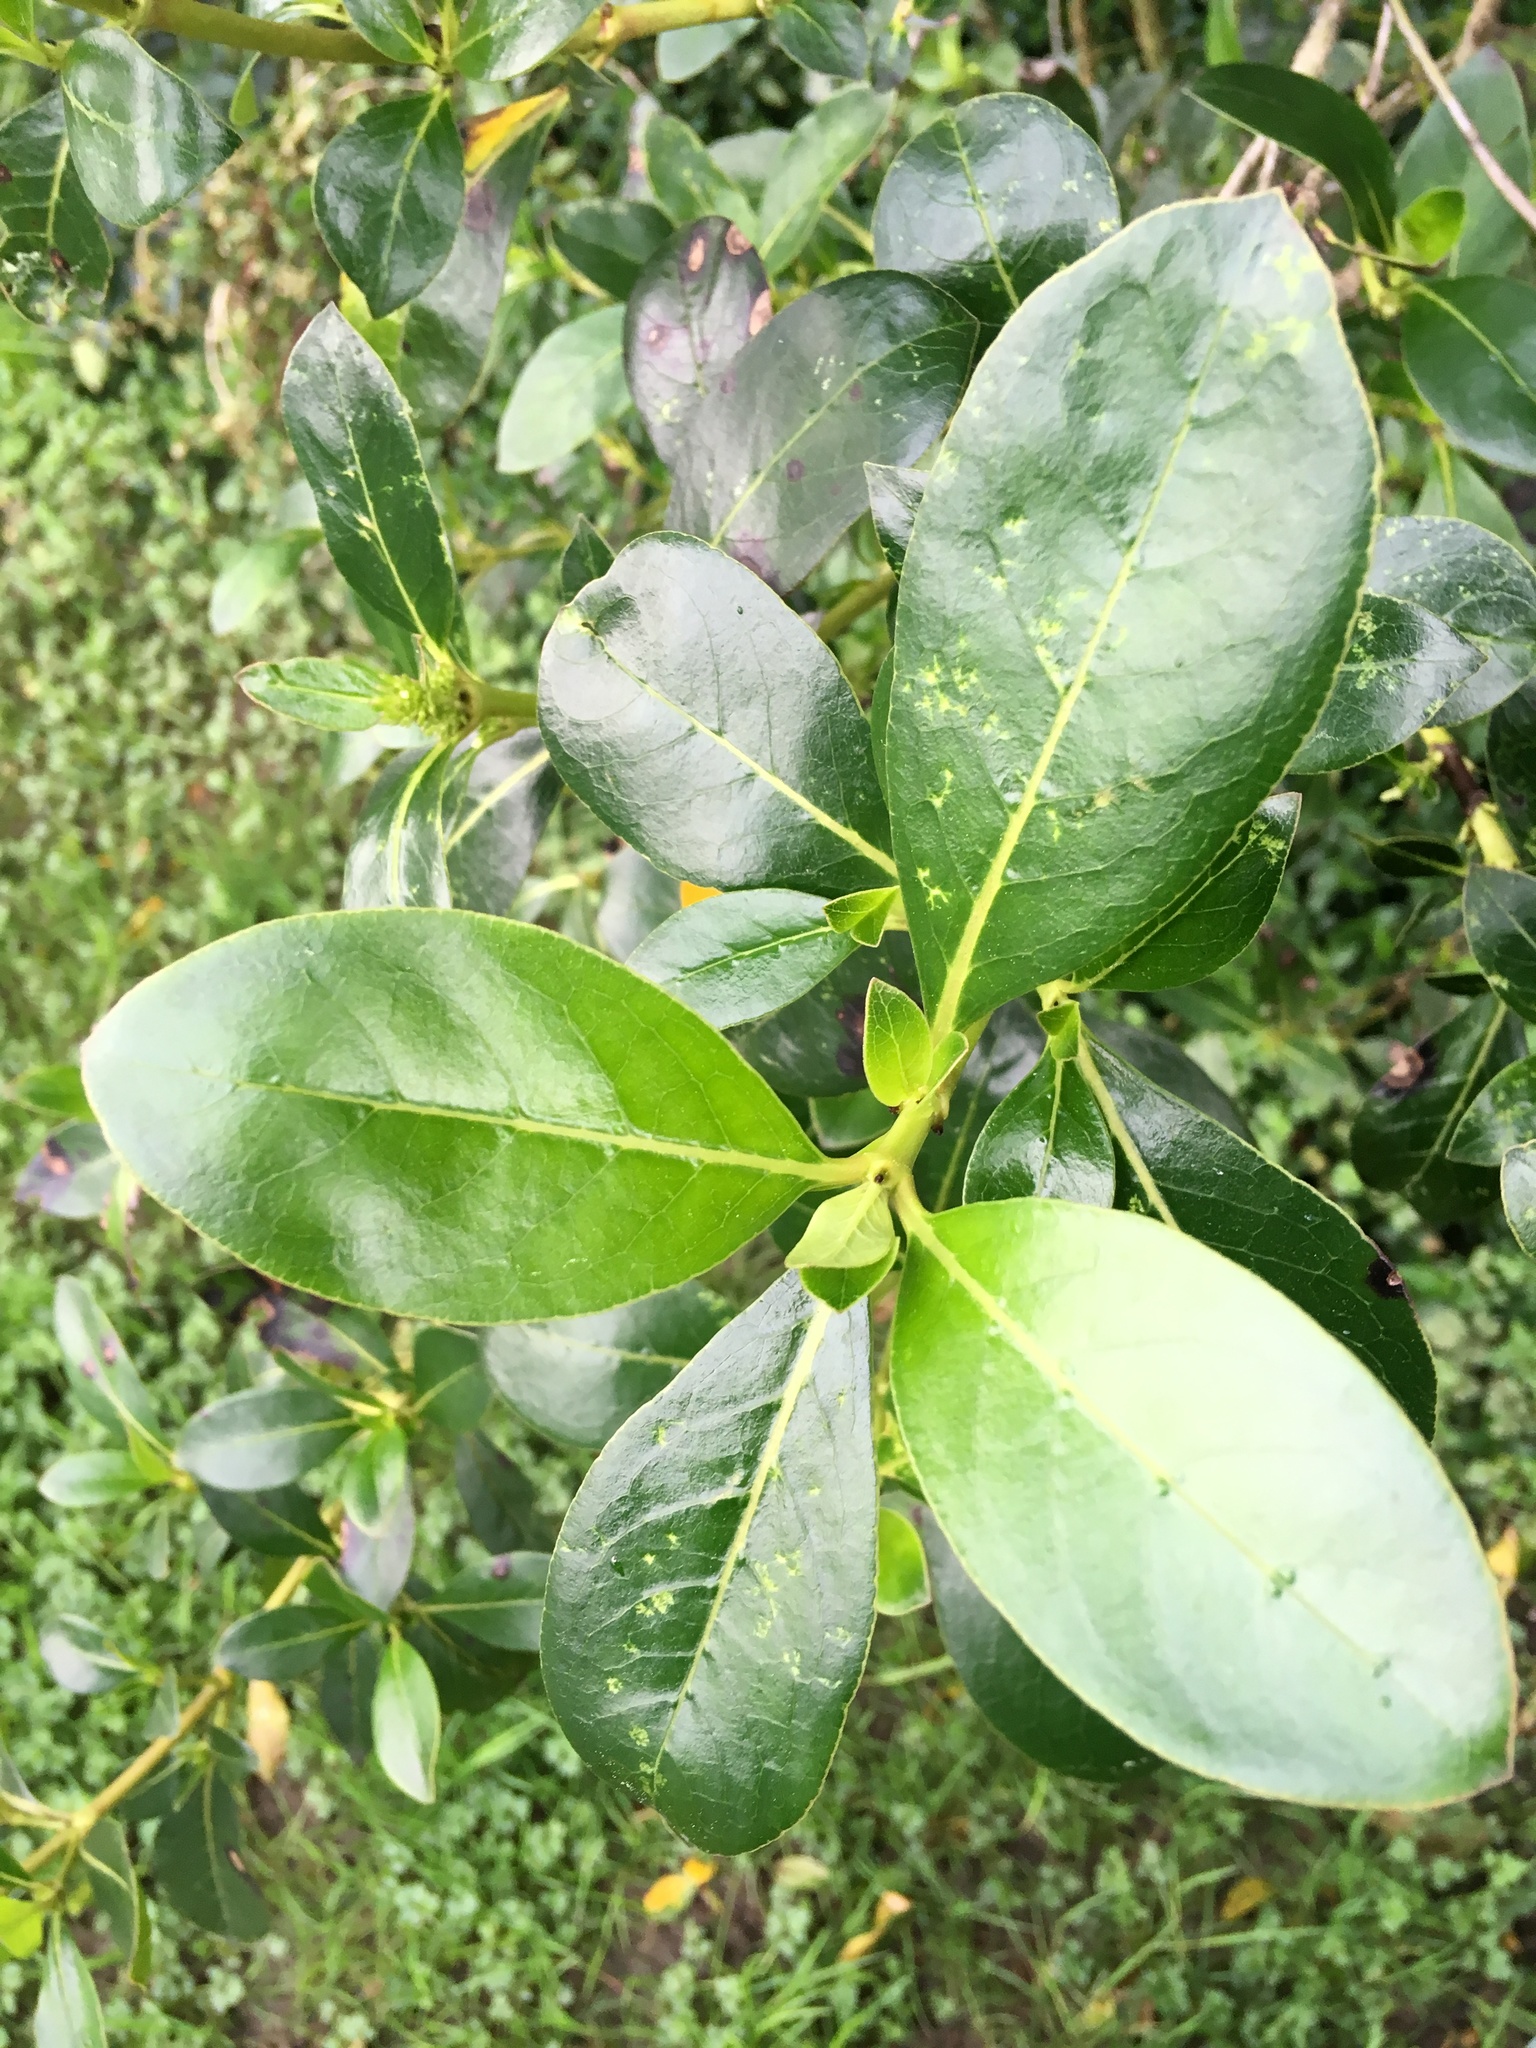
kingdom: Plantae
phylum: Tracheophyta
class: Magnoliopsida
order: Gentianales
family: Rubiaceae
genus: Coprosma
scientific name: Coprosma robusta
